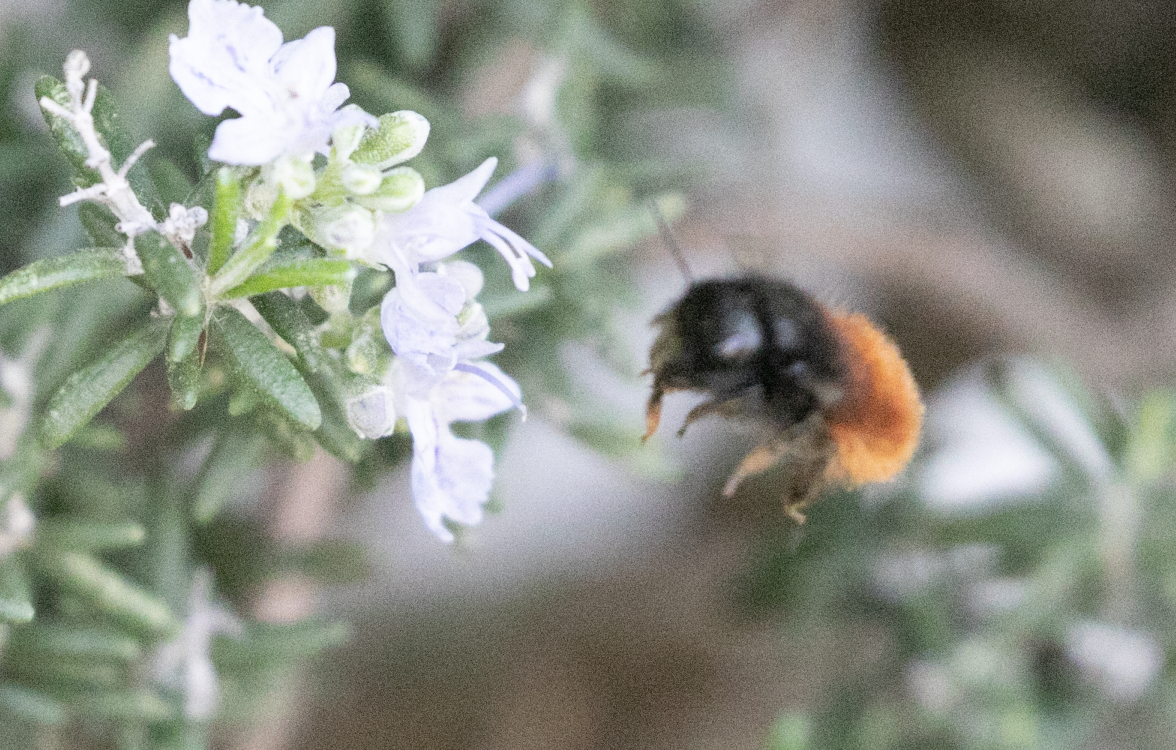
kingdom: Animalia
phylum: Arthropoda
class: Insecta
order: Hymenoptera
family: Megachilidae
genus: Osmia
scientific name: Osmia cornuta
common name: Mason bee
